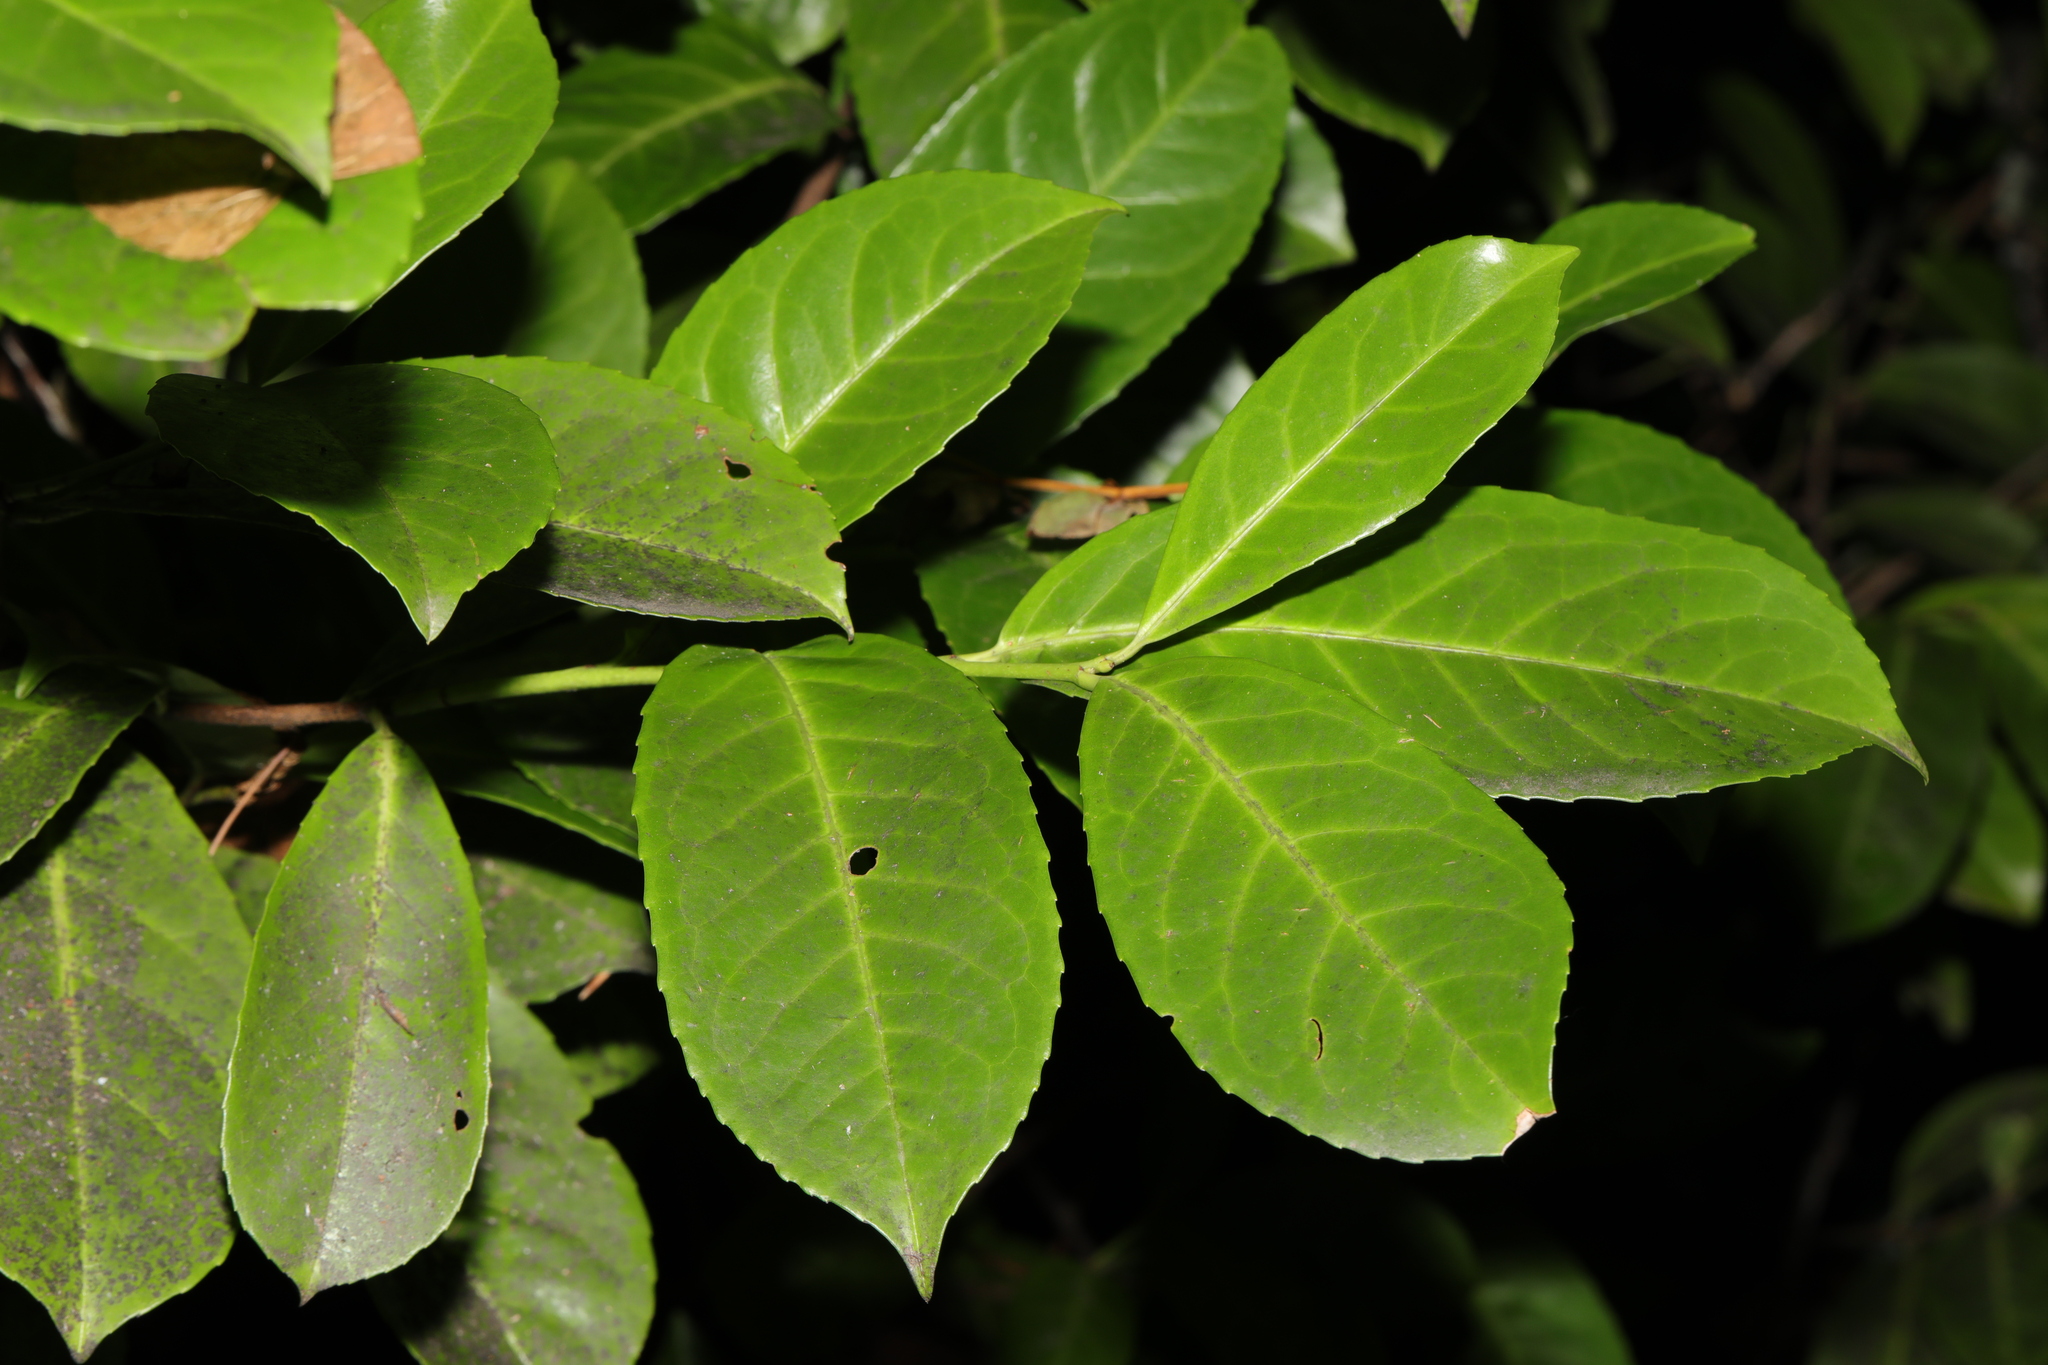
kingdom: Plantae
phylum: Tracheophyta
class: Magnoliopsida
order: Rosales
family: Rosaceae
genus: Prunus
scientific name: Prunus laurocerasus
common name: Cherry laurel
